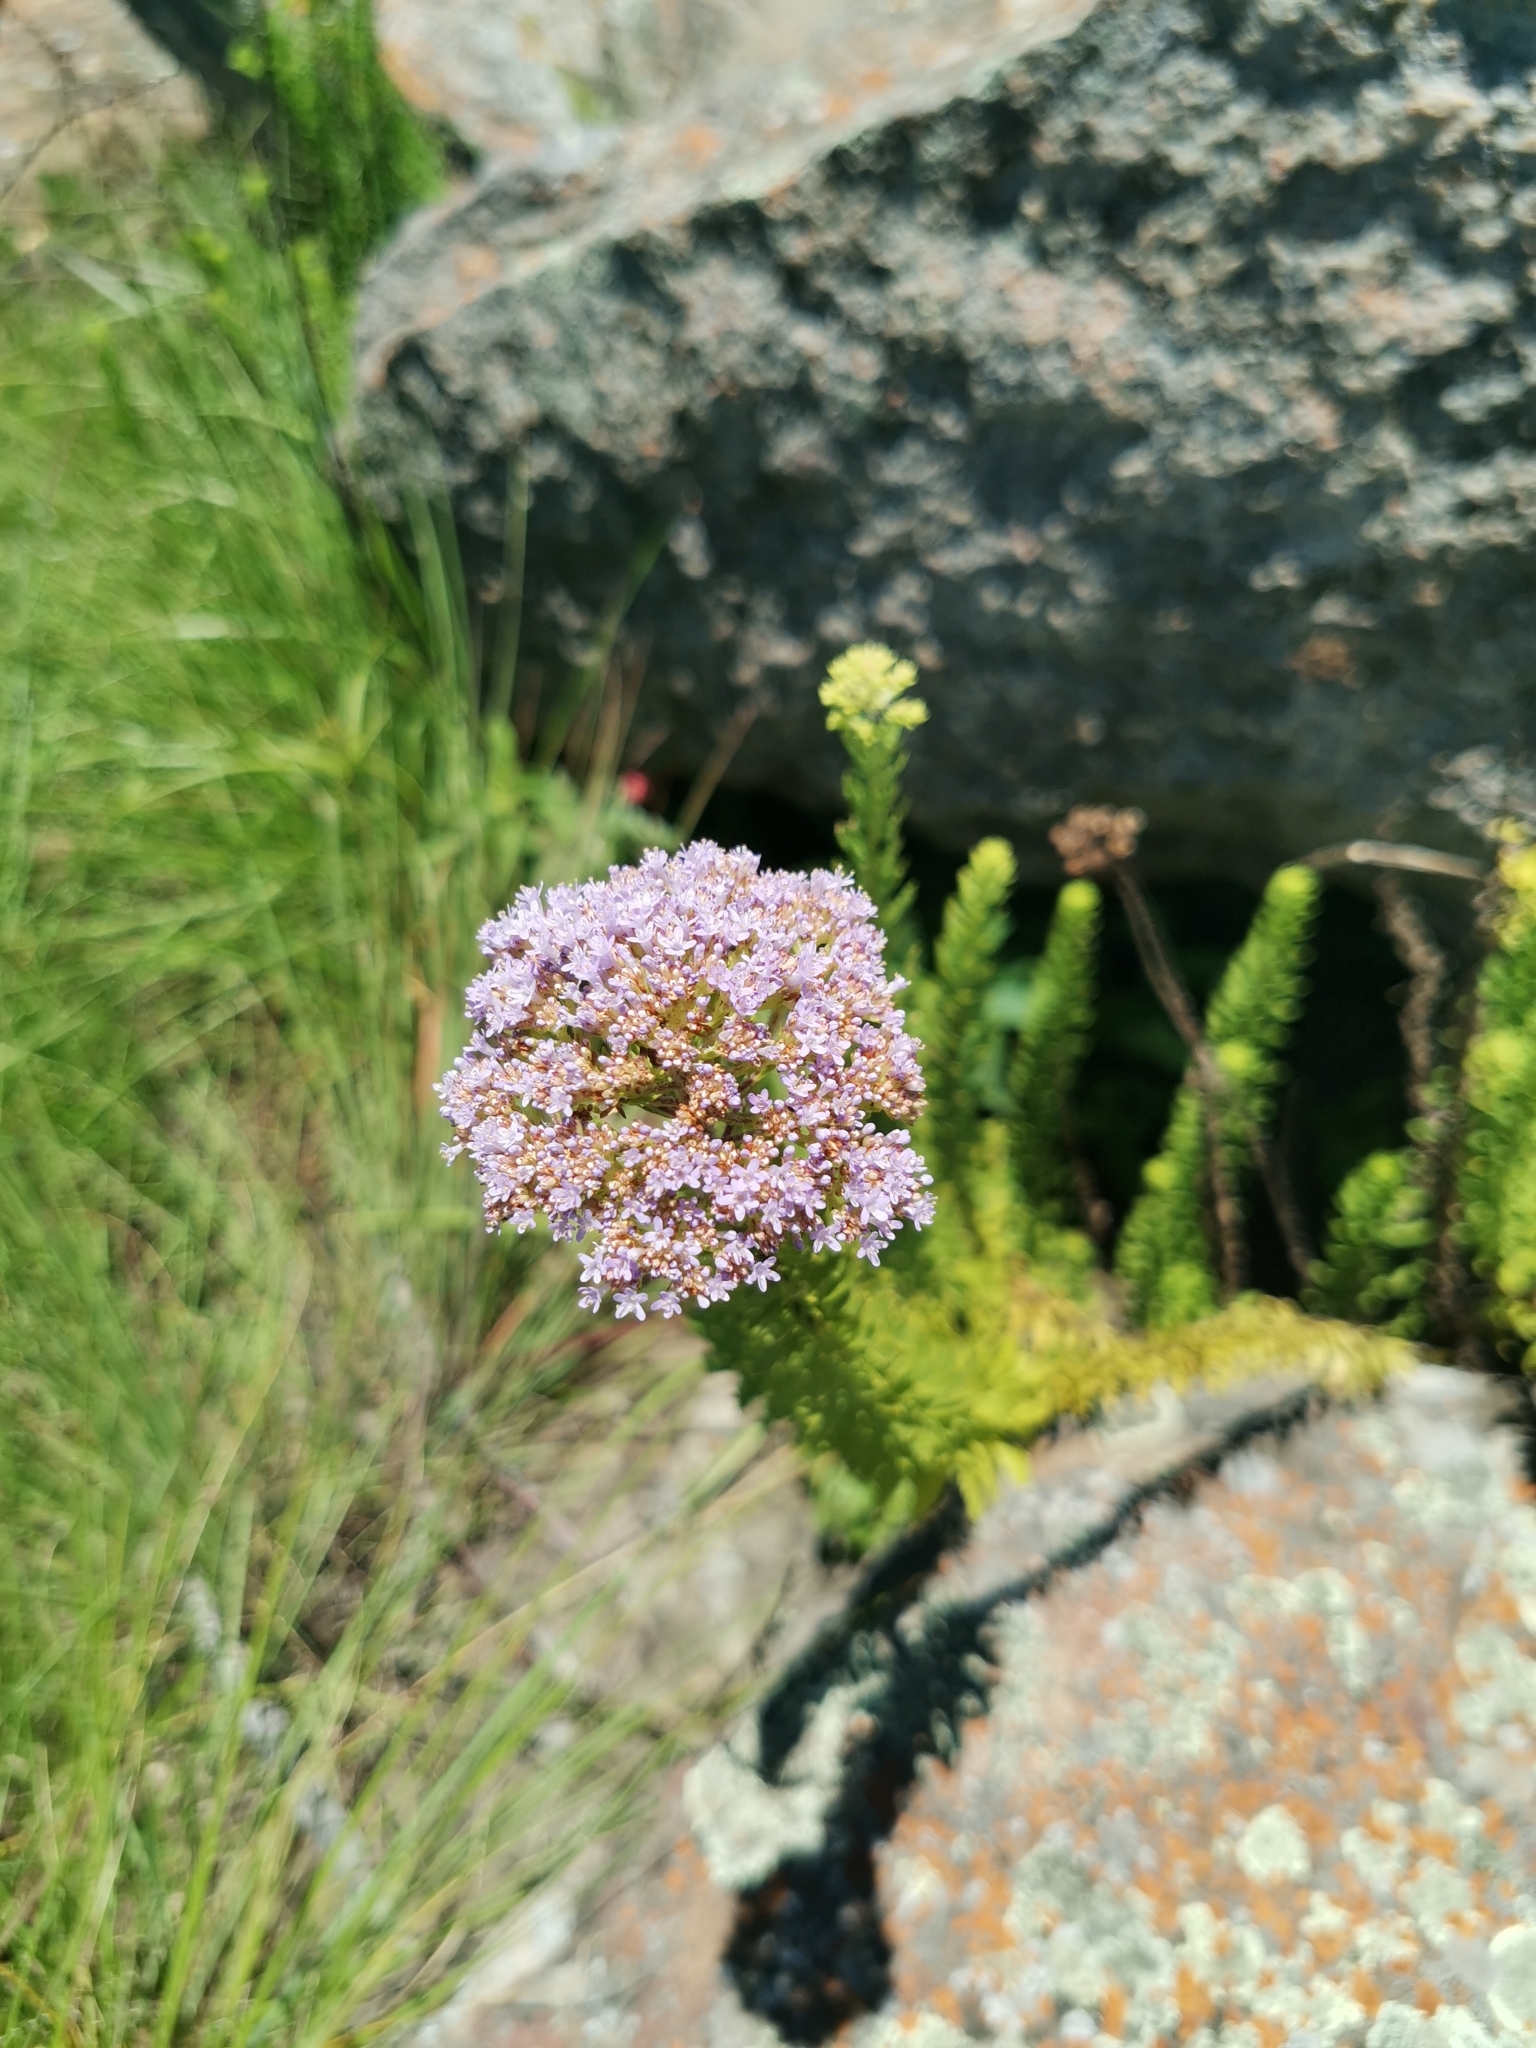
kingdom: Plantae
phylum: Tracheophyta
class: Magnoliopsida
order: Lamiales
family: Scrophulariaceae
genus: Tetraselago
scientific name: Tetraselago natalensis
